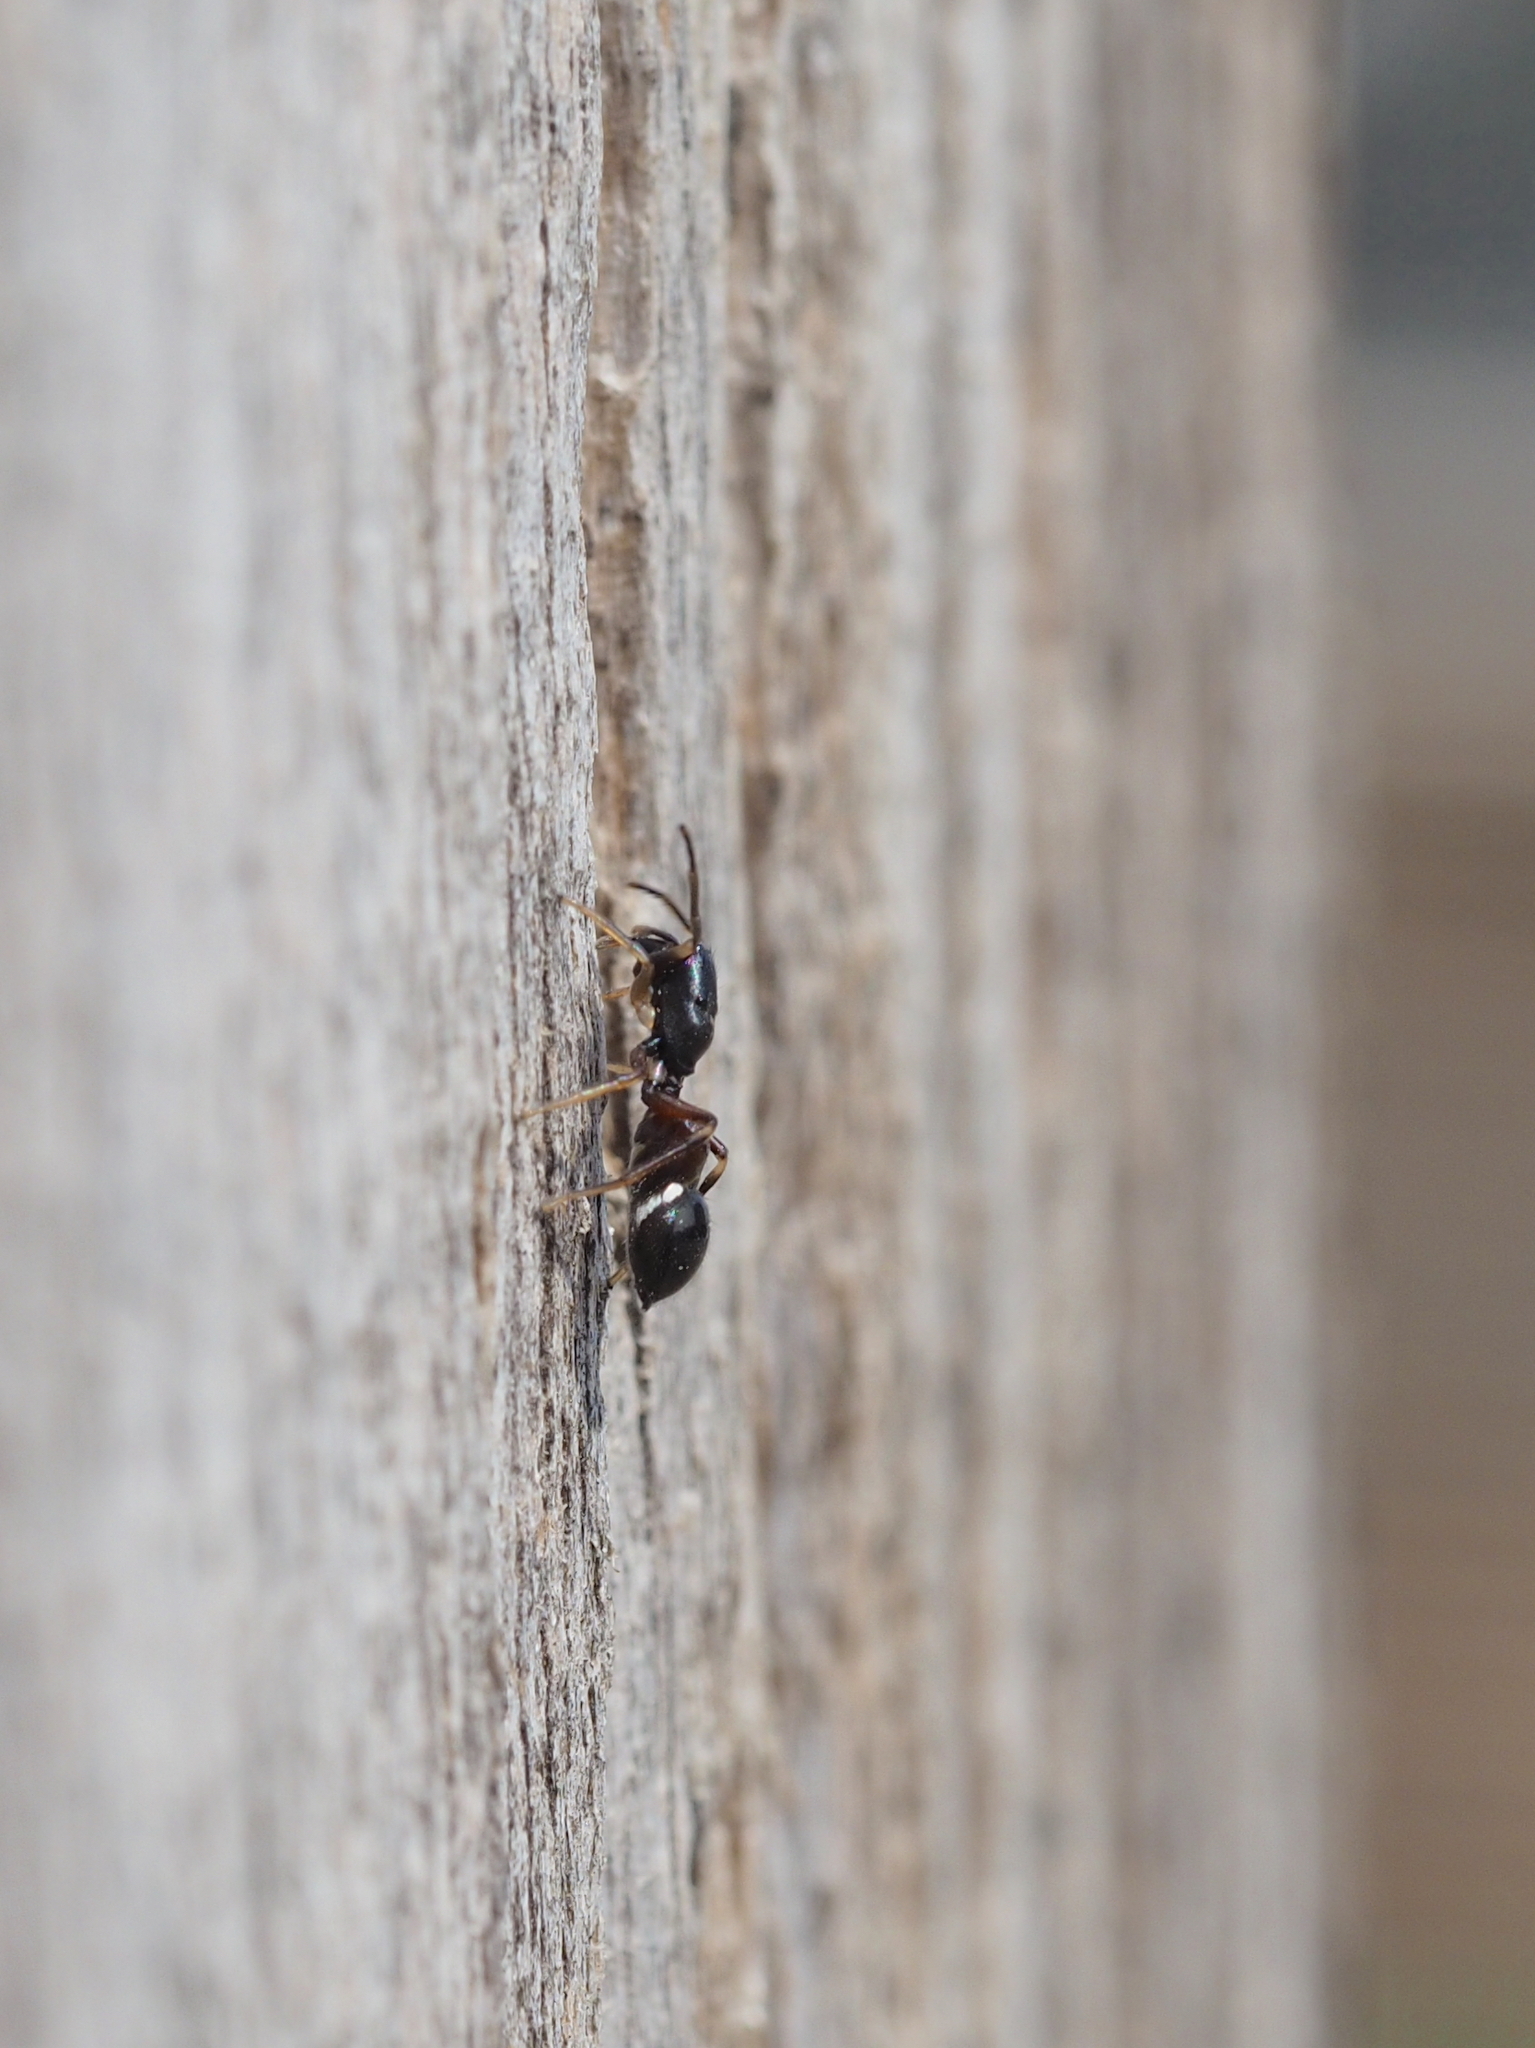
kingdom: Animalia
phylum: Arthropoda
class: Arachnida
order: Araneae
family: Salticidae
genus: Leptorchestes
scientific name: Leptorchestes berolinensis
